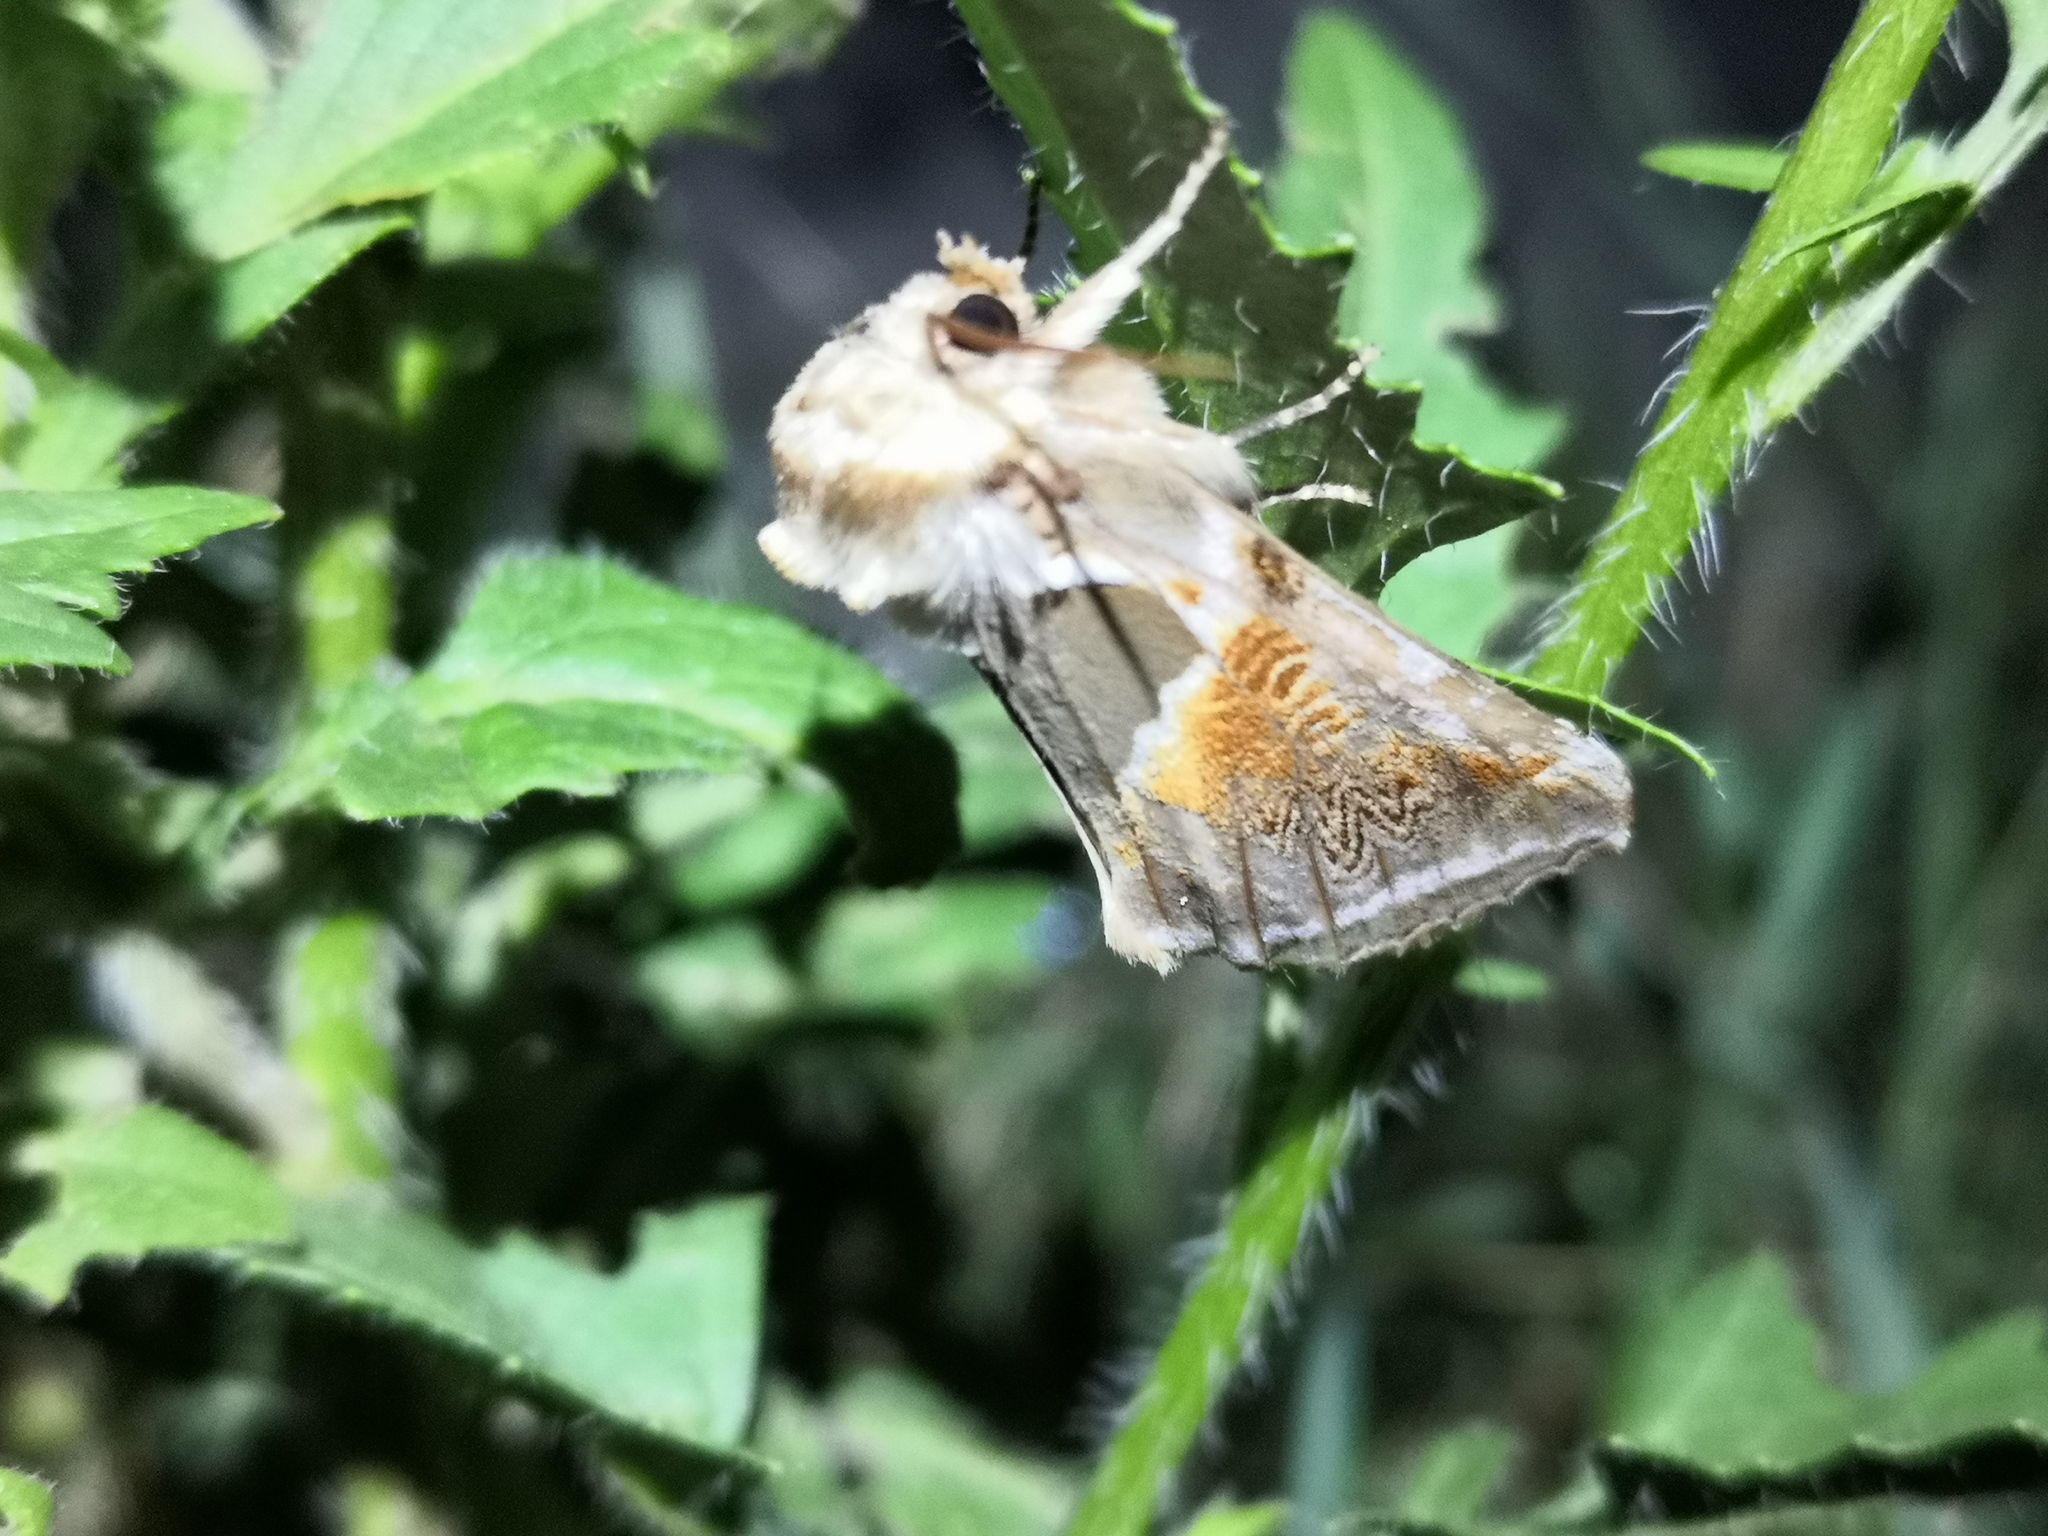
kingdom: Animalia
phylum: Arthropoda
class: Insecta
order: Lepidoptera
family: Drepanidae
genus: Habrosyne
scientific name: Habrosyne pyritoides
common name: Buff arches
